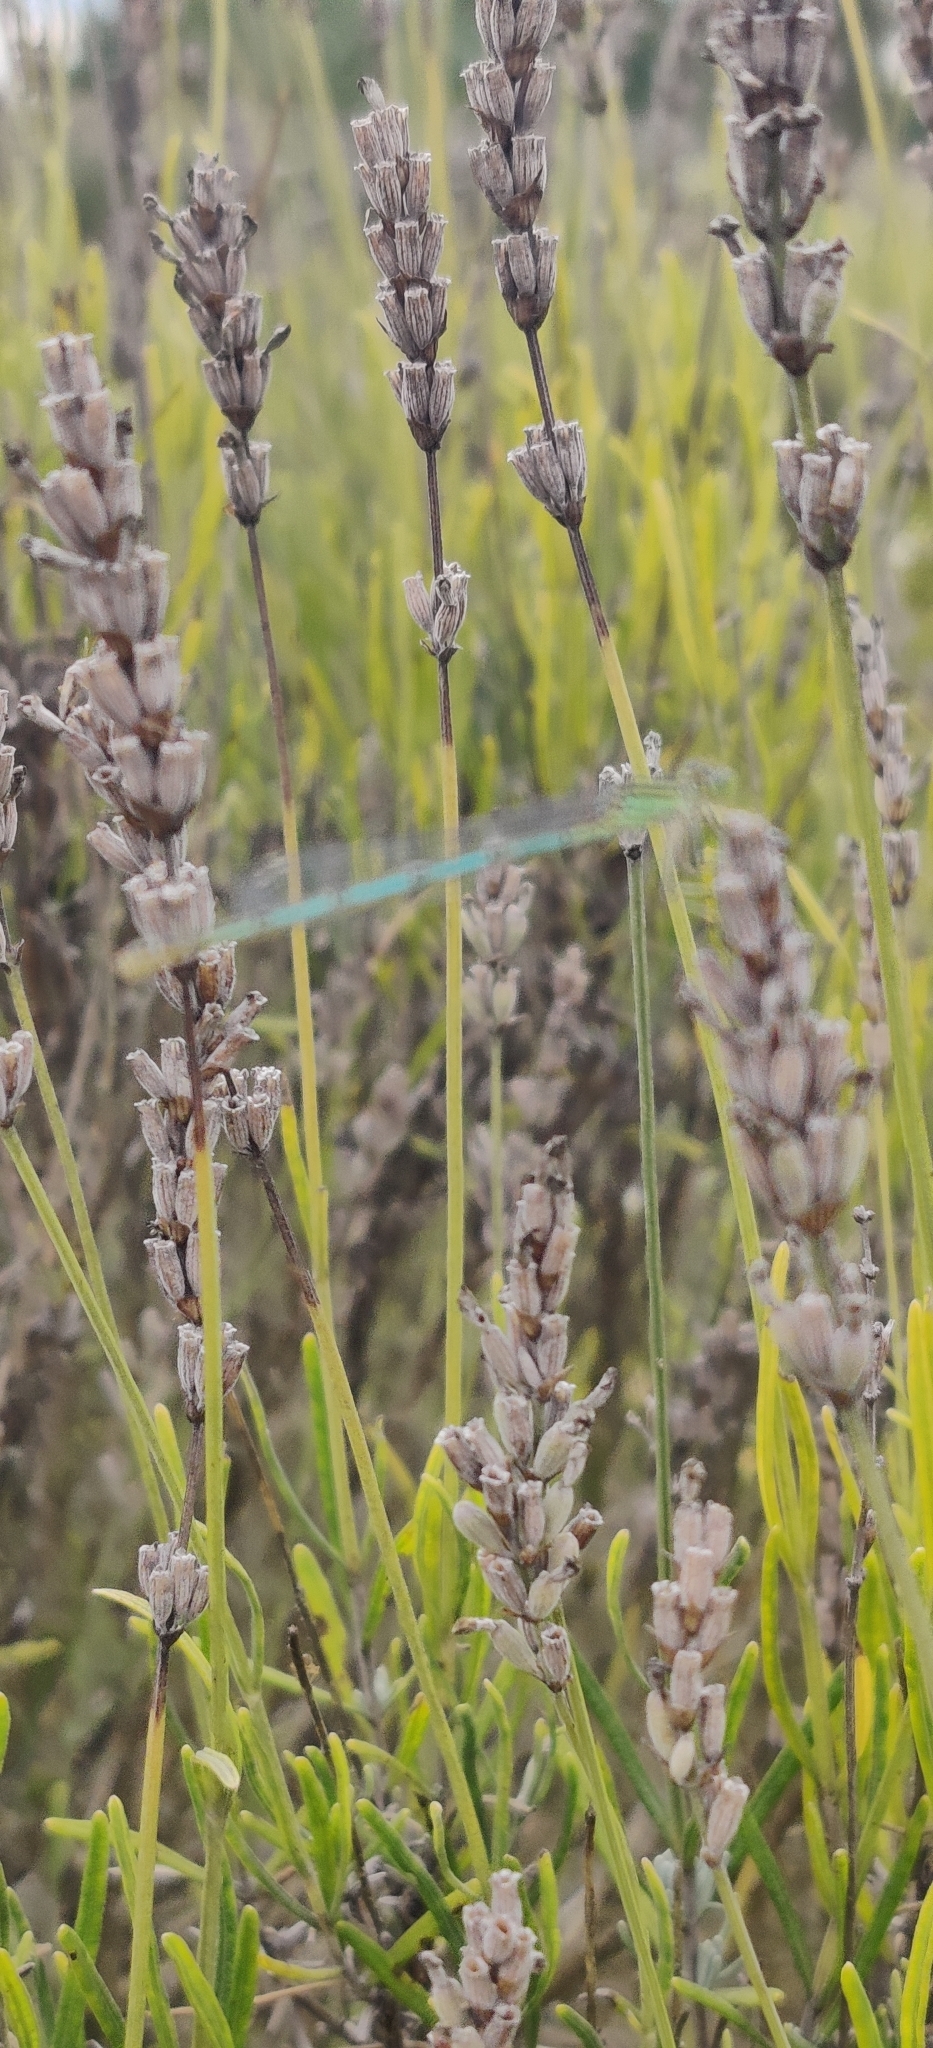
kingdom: Animalia
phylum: Arthropoda
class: Insecta
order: Odonata
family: Coenagrionidae
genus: Erythromma
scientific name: Erythromma lindenii
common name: Blue-eye
